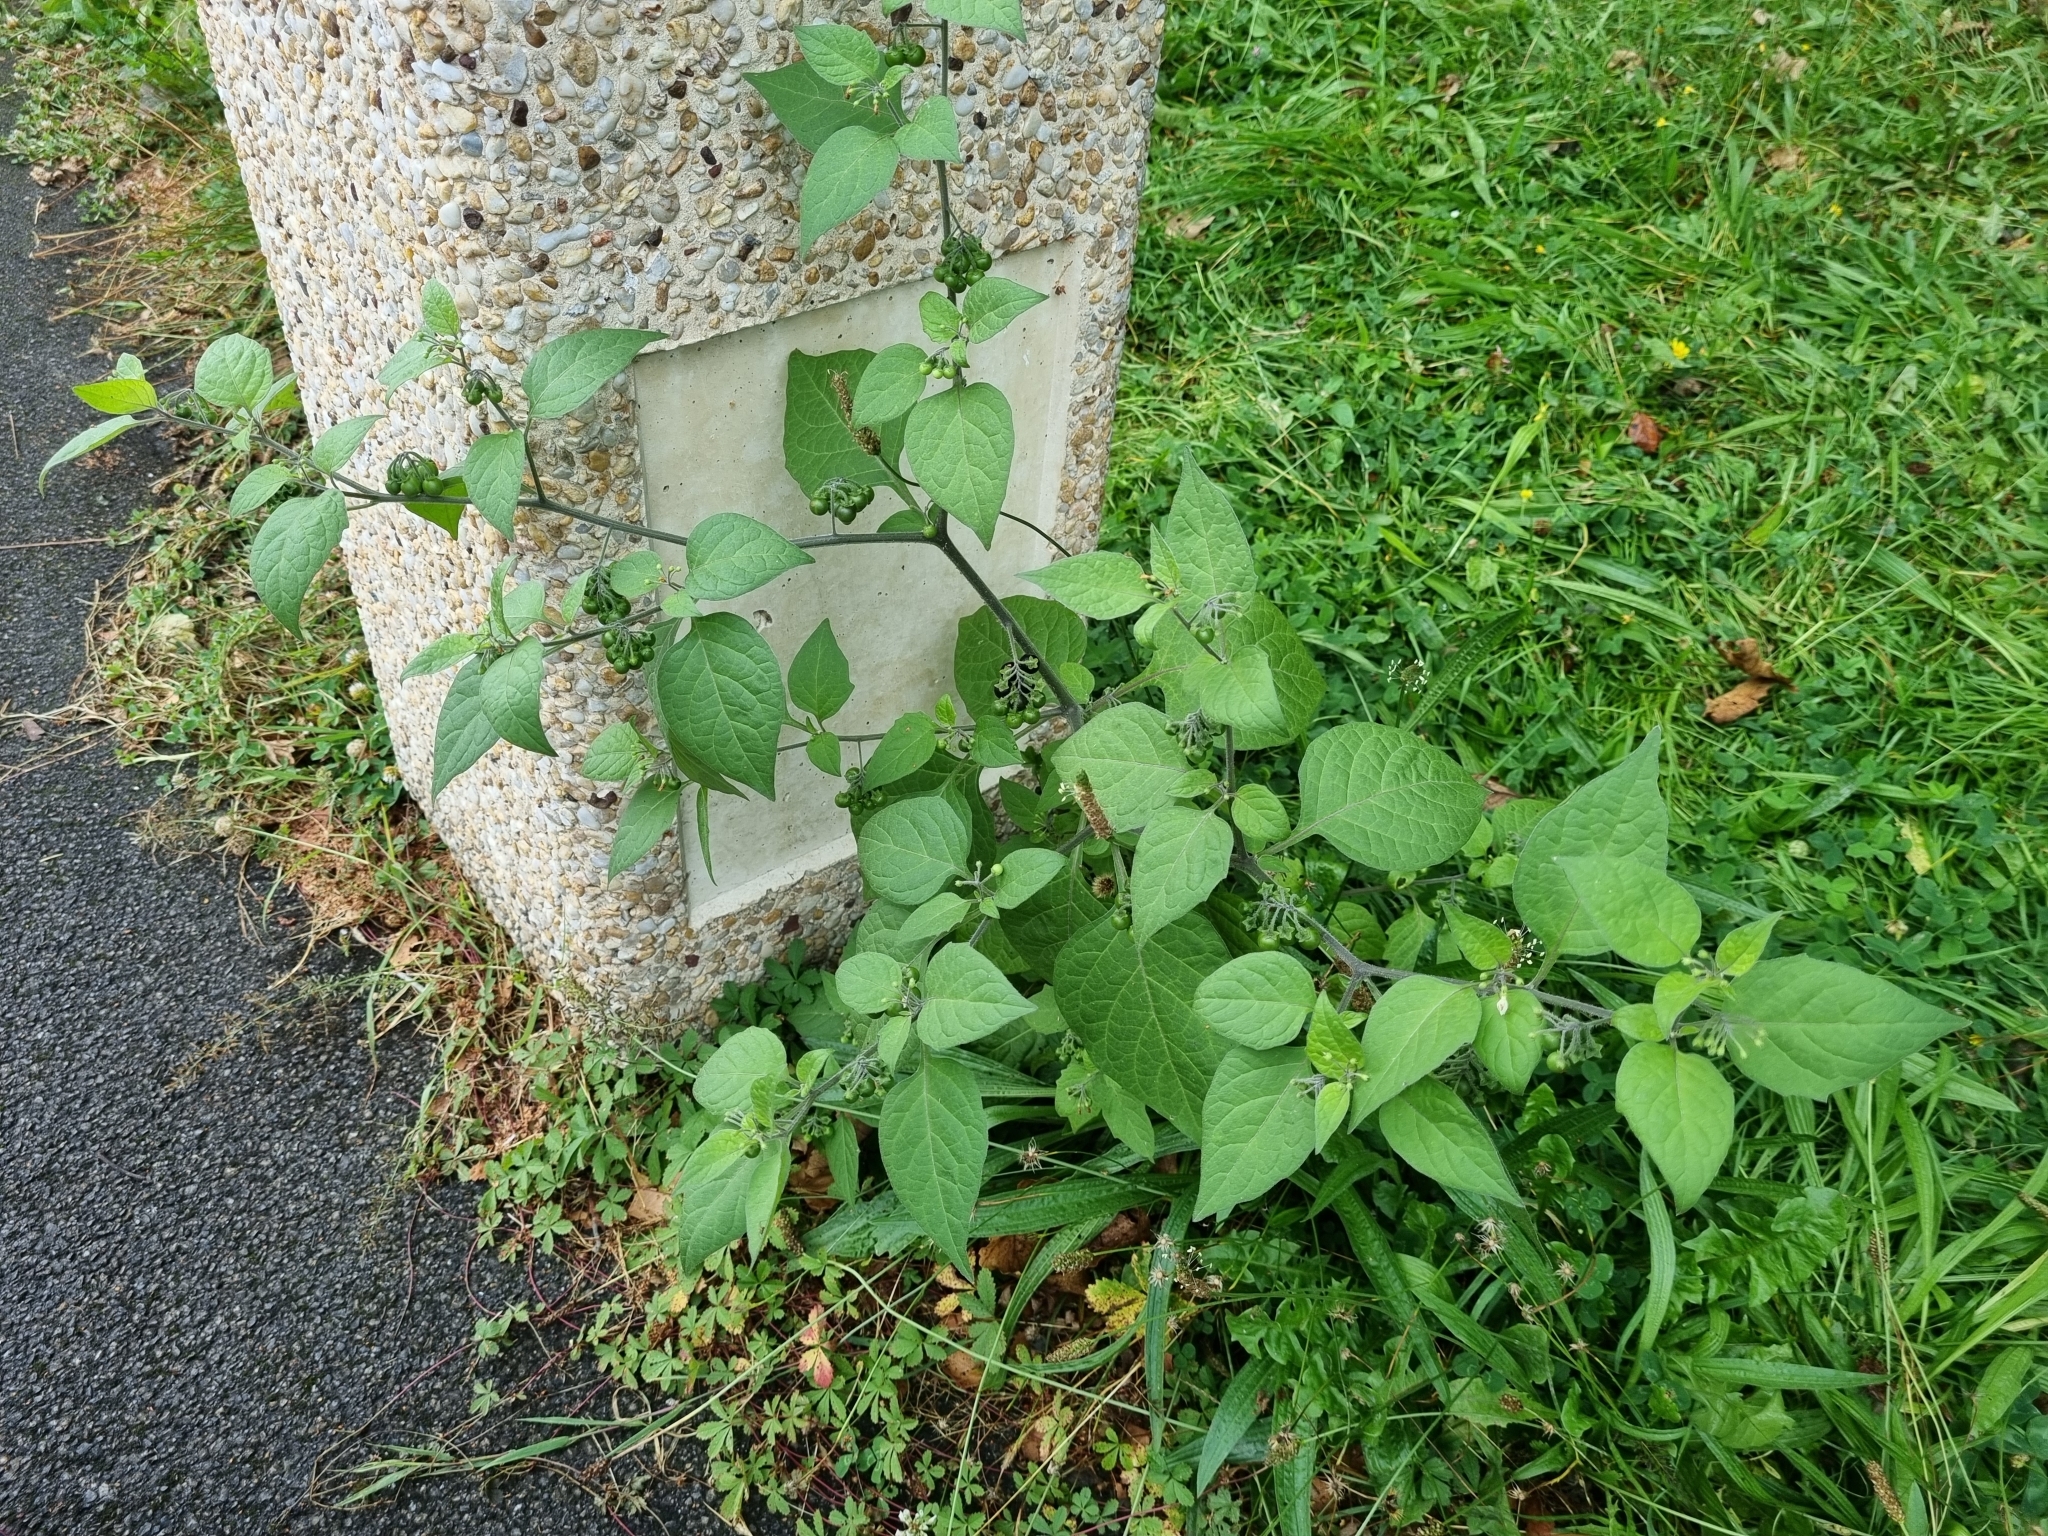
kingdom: Plantae
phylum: Tracheophyta
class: Magnoliopsida
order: Solanales
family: Solanaceae
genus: Solanum
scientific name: Solanum nigrum
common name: Black nightshade
